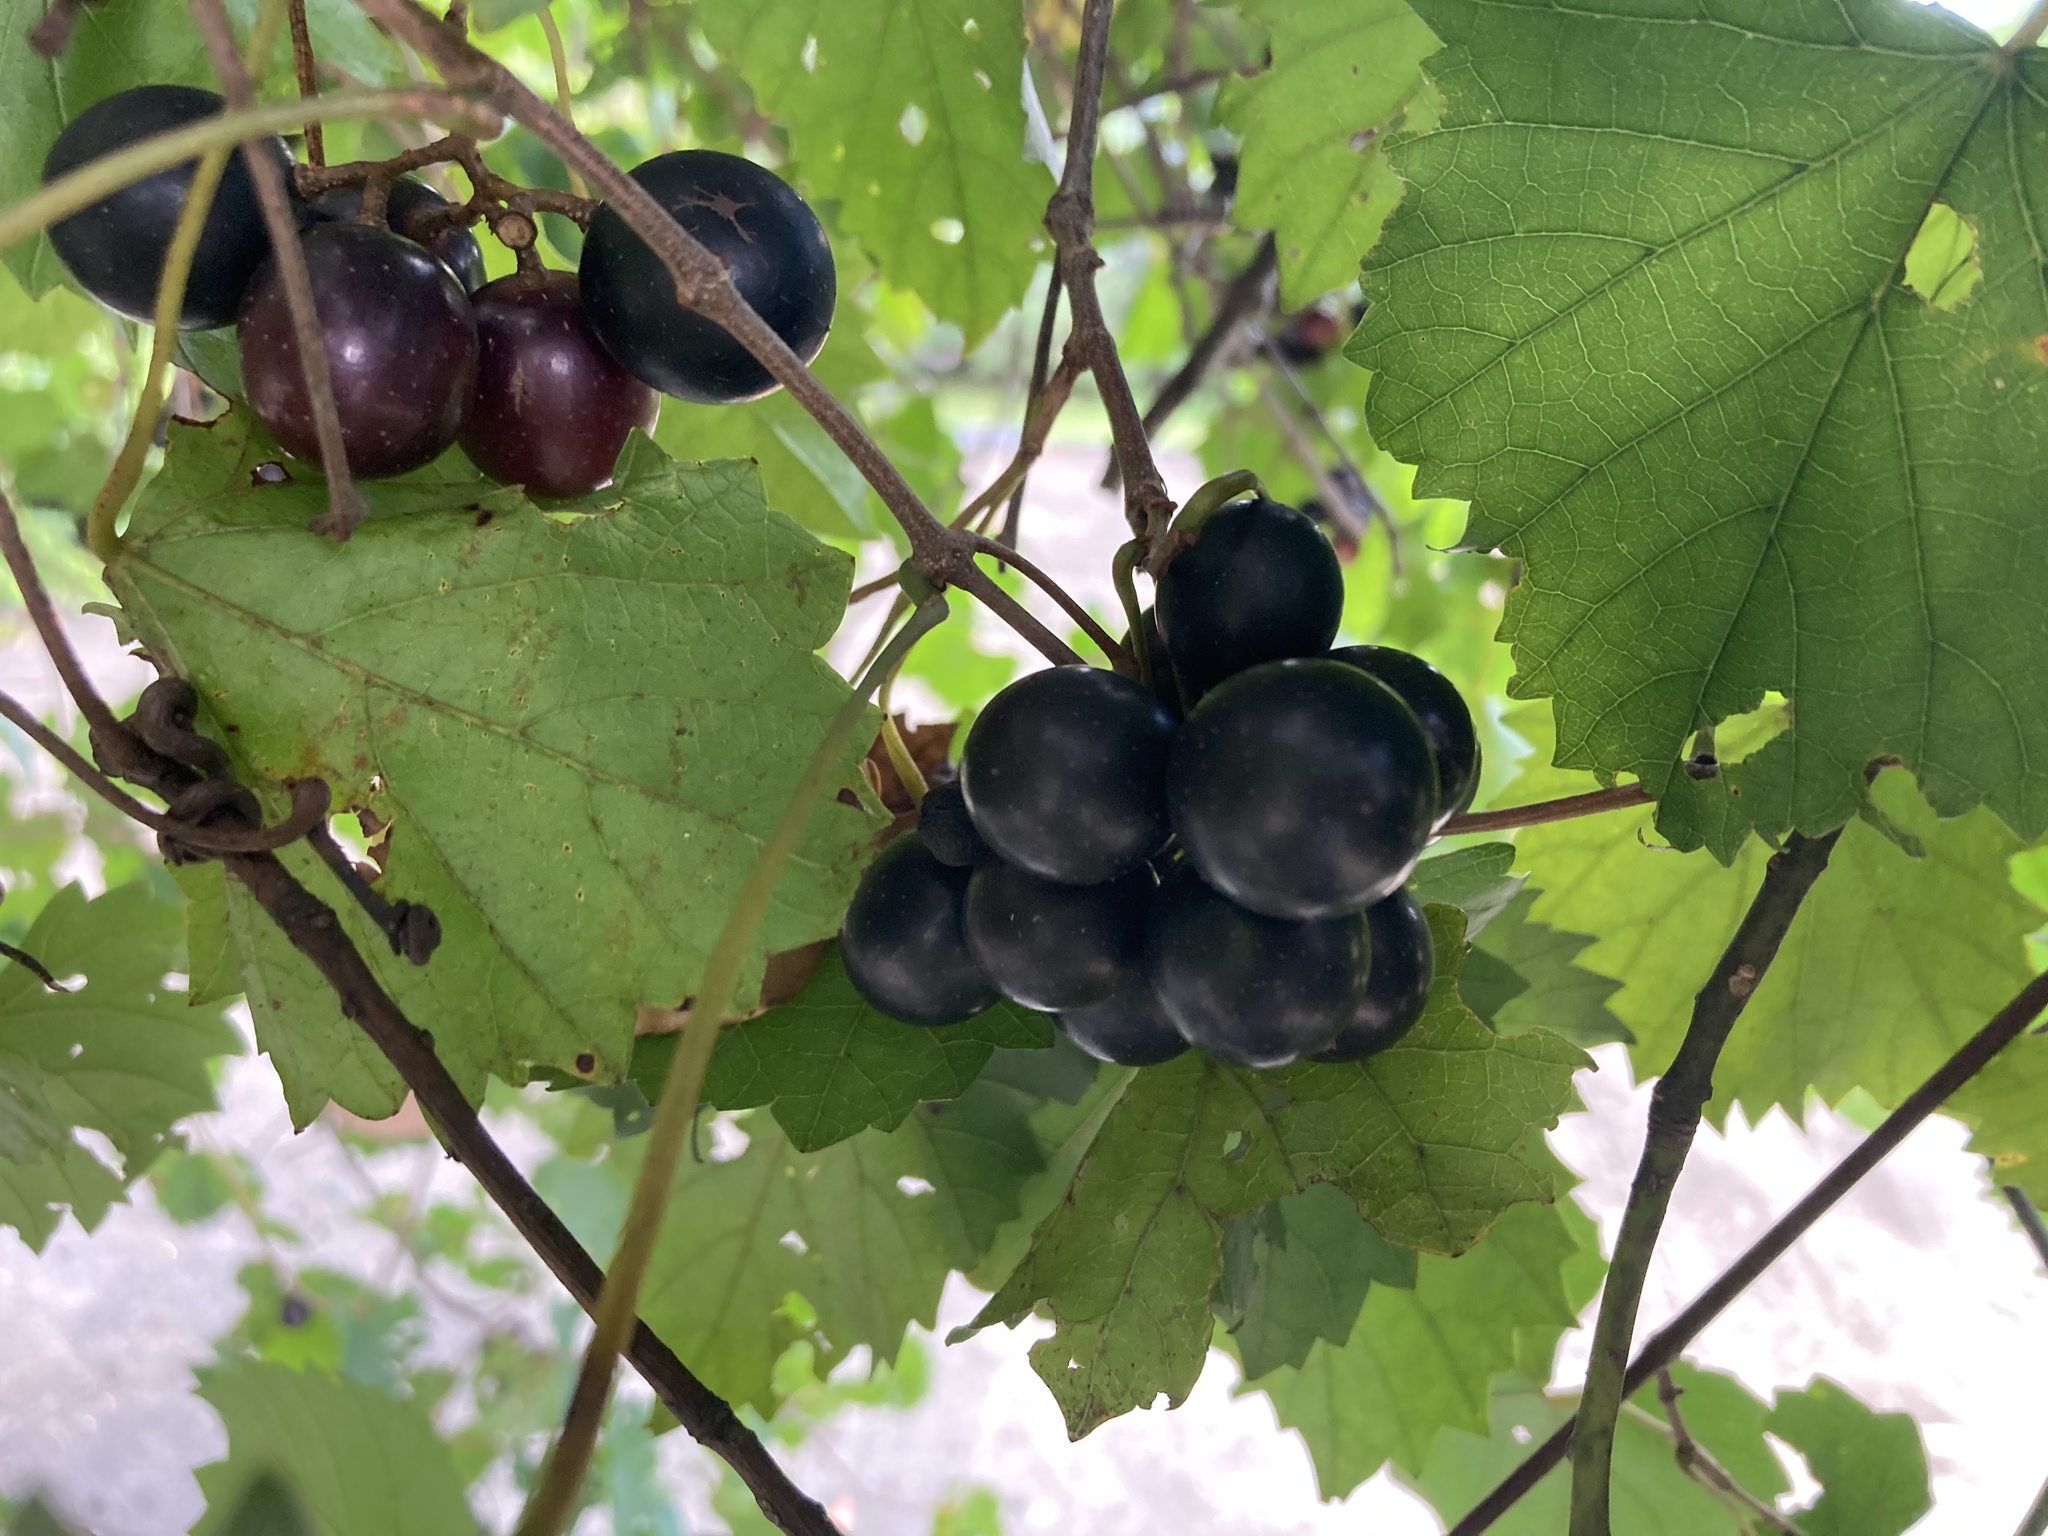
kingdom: Plantae
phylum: Tracheophyta
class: Magnoliopsida
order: Vitales
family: Vitaceae
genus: Vitis
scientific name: Vitis rotundifolia
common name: Muscadine grape
